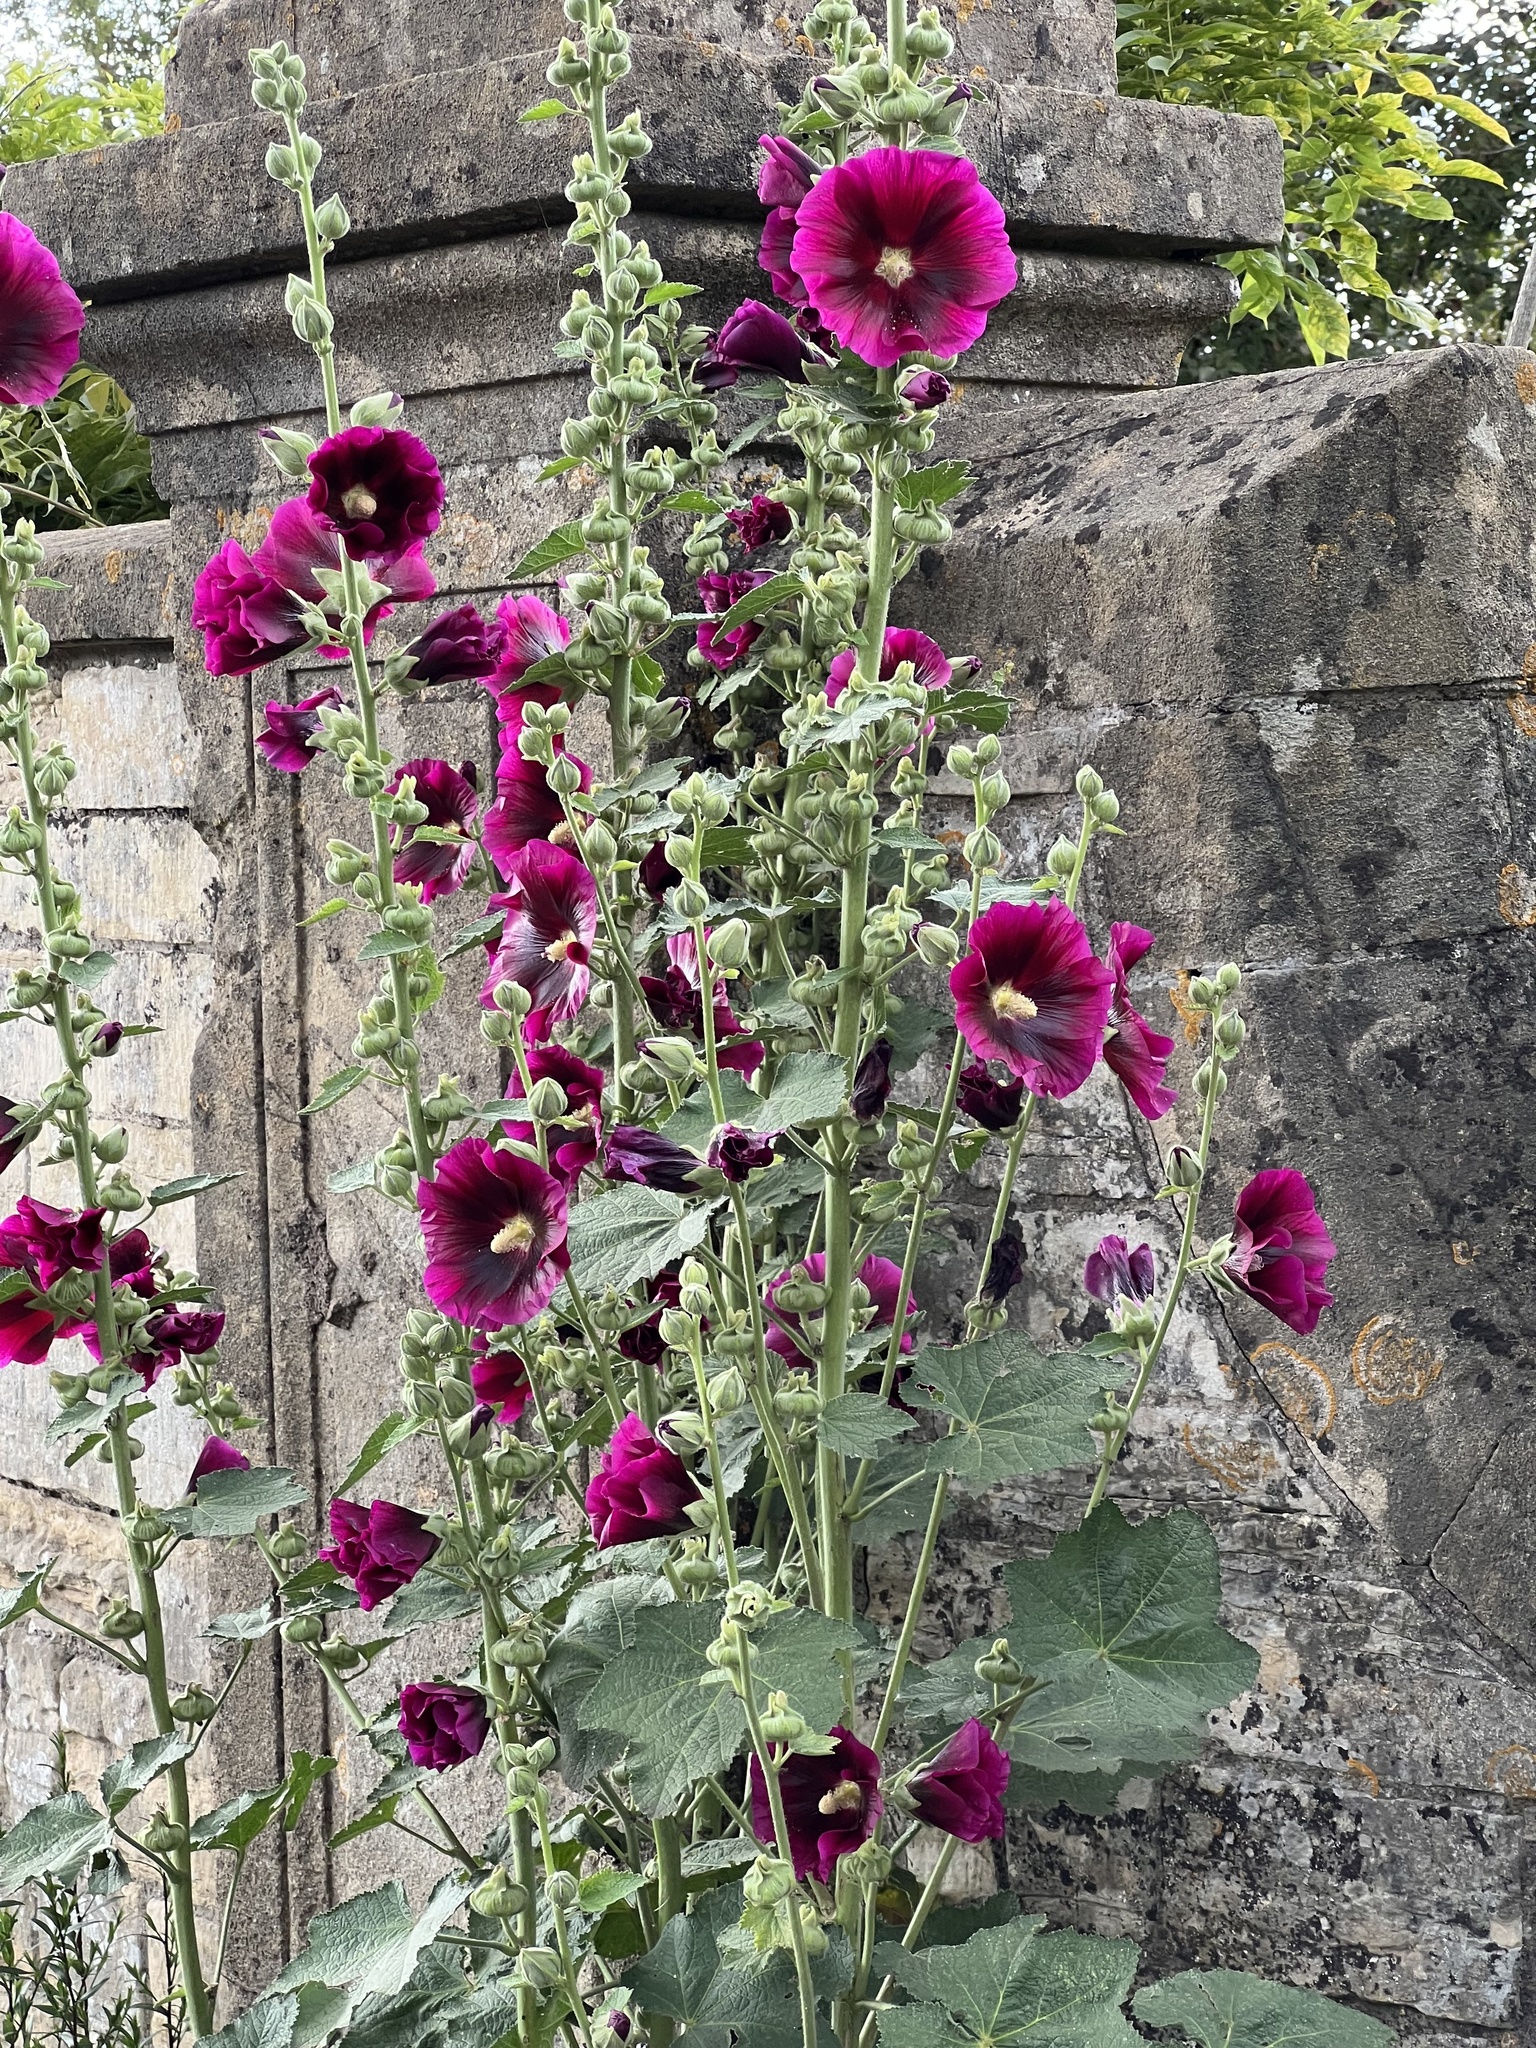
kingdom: Plantae
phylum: Tracheophyta
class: Magnoliopsida
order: Malvales
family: Malvaceae
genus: Alcea
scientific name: Alcea rosea
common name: Hollyhock
